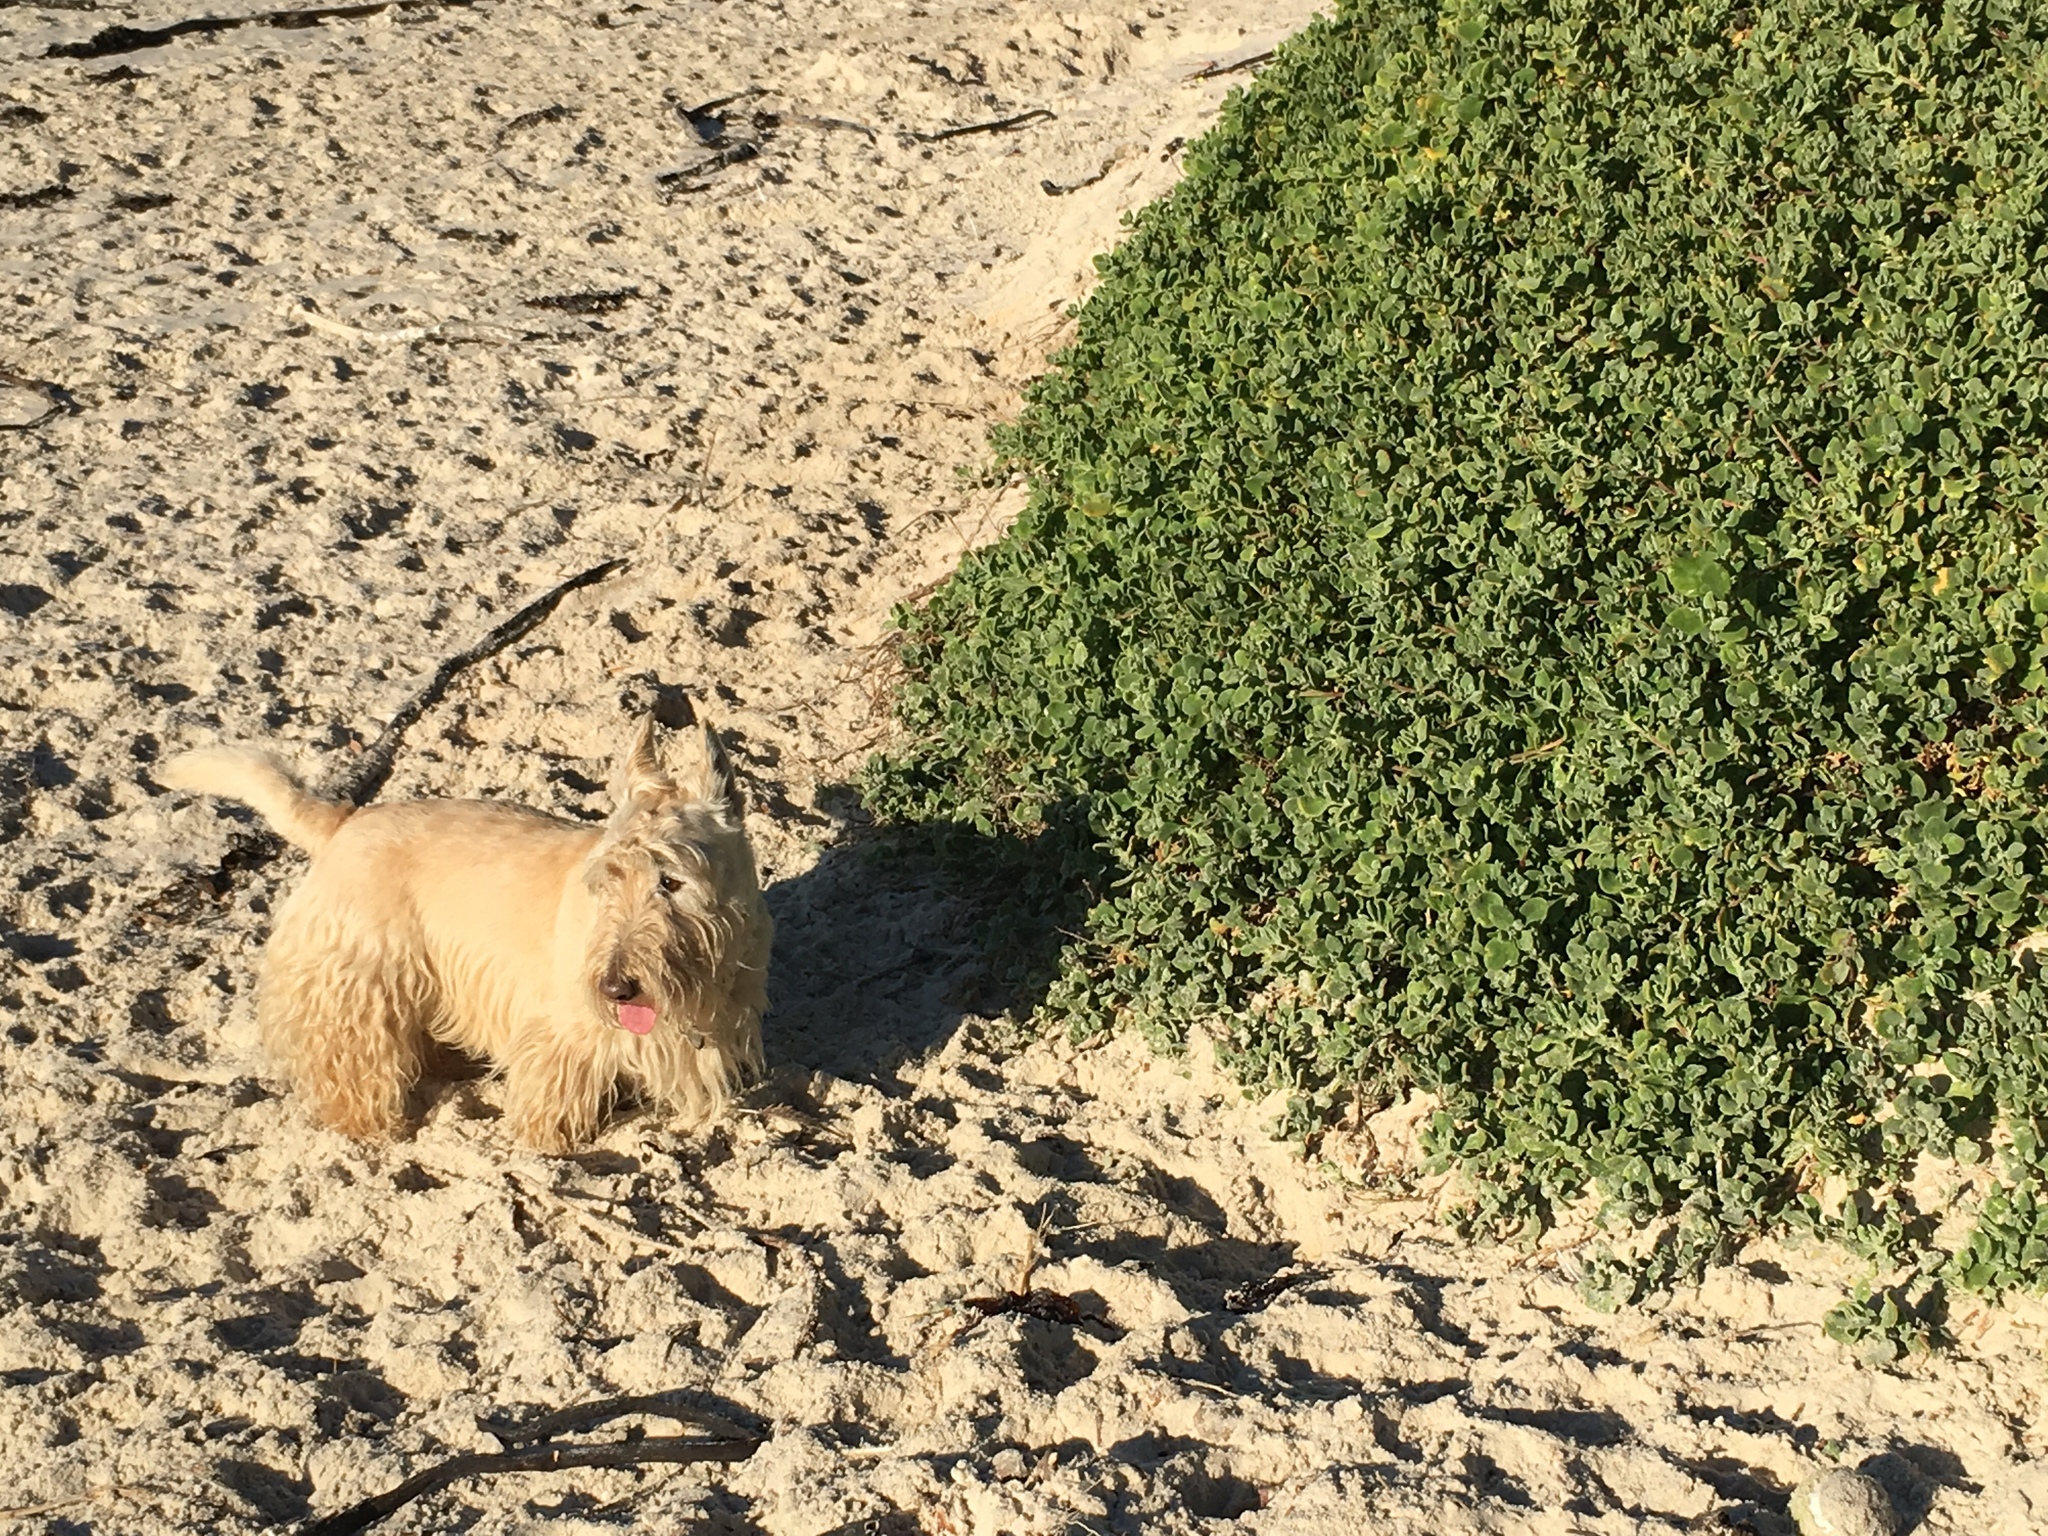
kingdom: Plantae
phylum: Tracheophyta
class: Magnoliopsida
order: Caryophyllales
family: Aizoaceae
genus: Tetragonia
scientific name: Tetragonia decumbens
